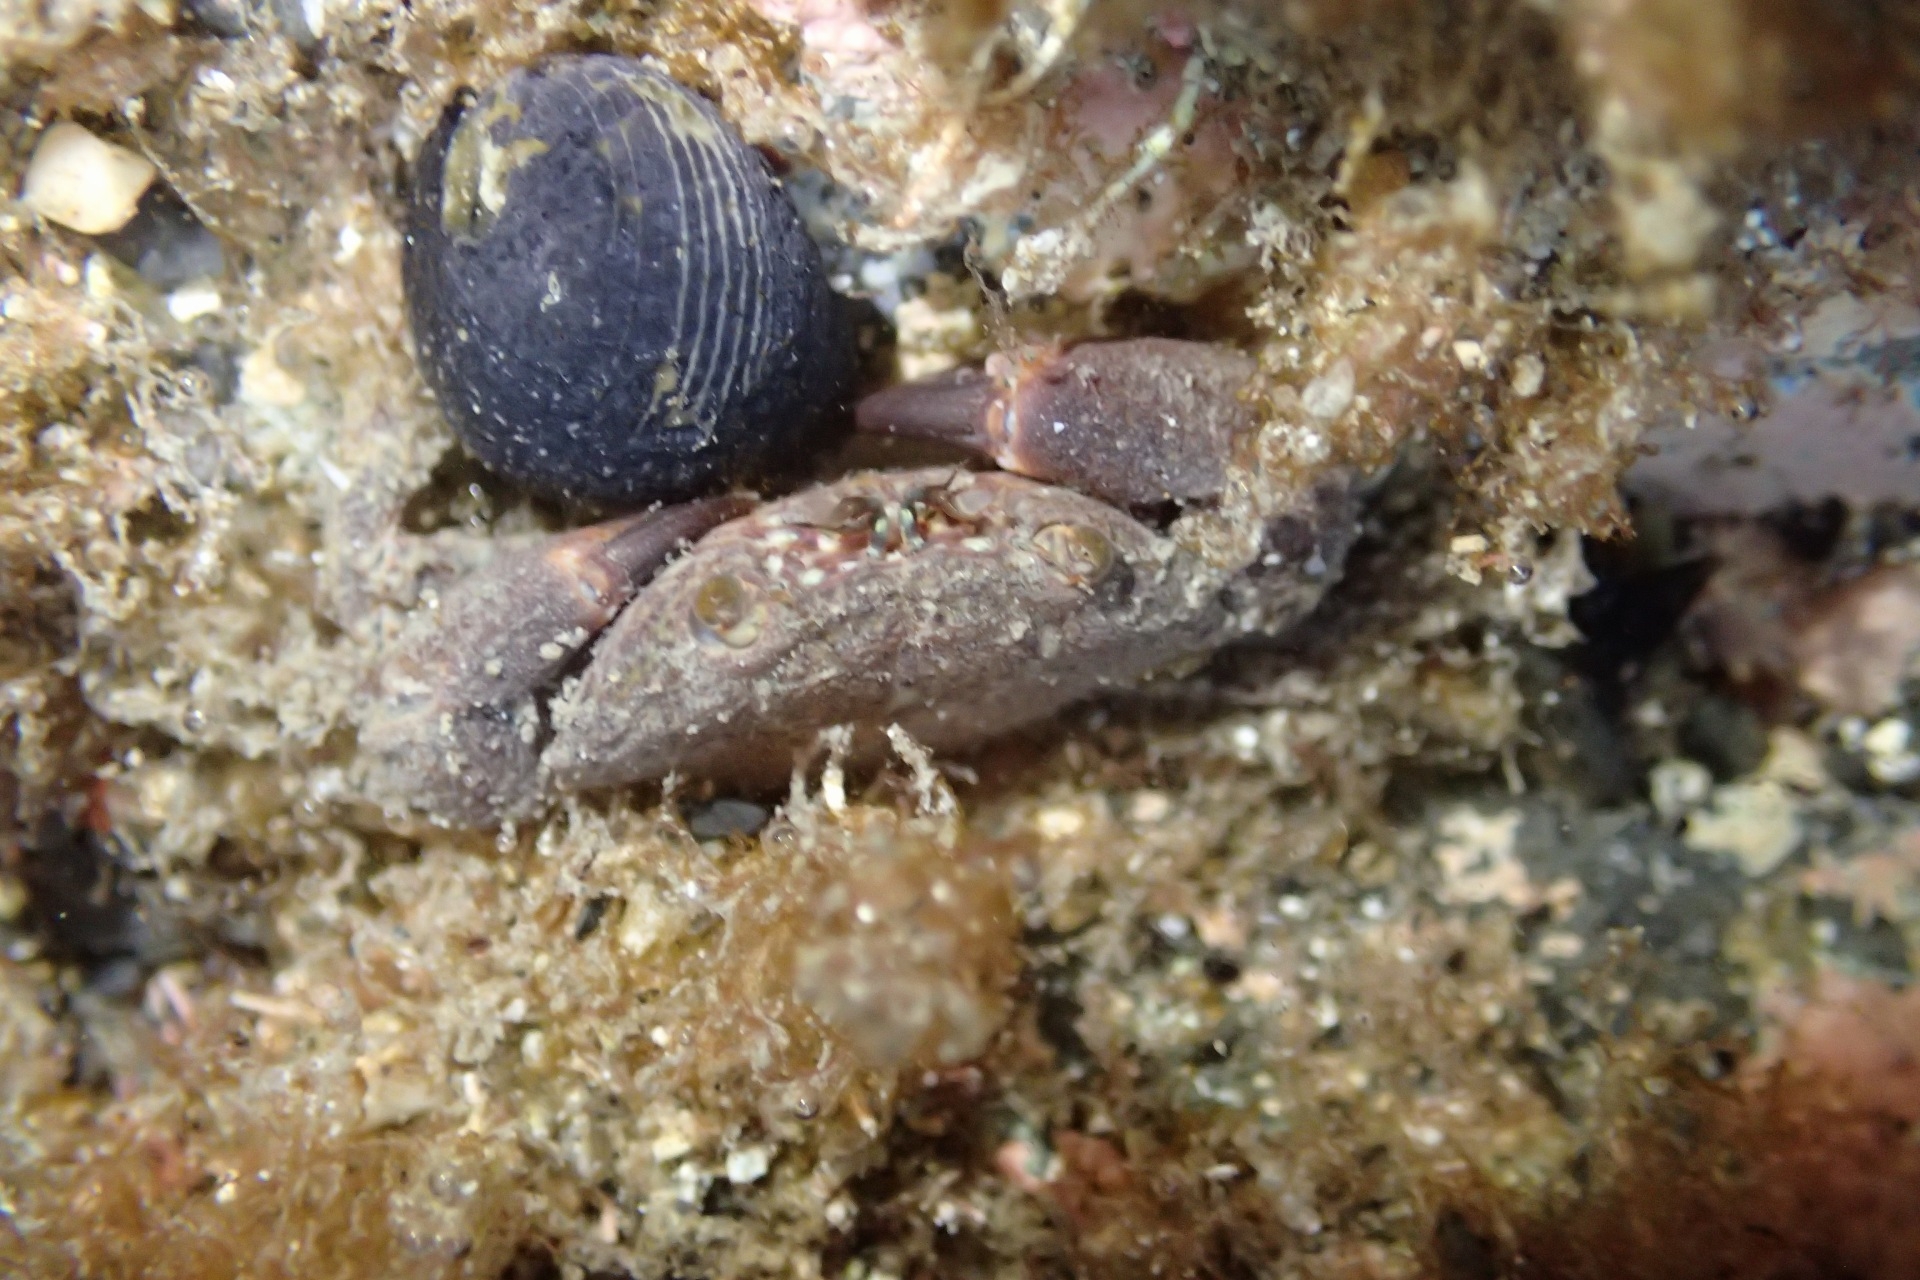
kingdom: Animalia
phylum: Arthropoda
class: Malacostraca
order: Decapoda
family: Oziidae
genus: Ozius
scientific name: Ozius deplanatus
